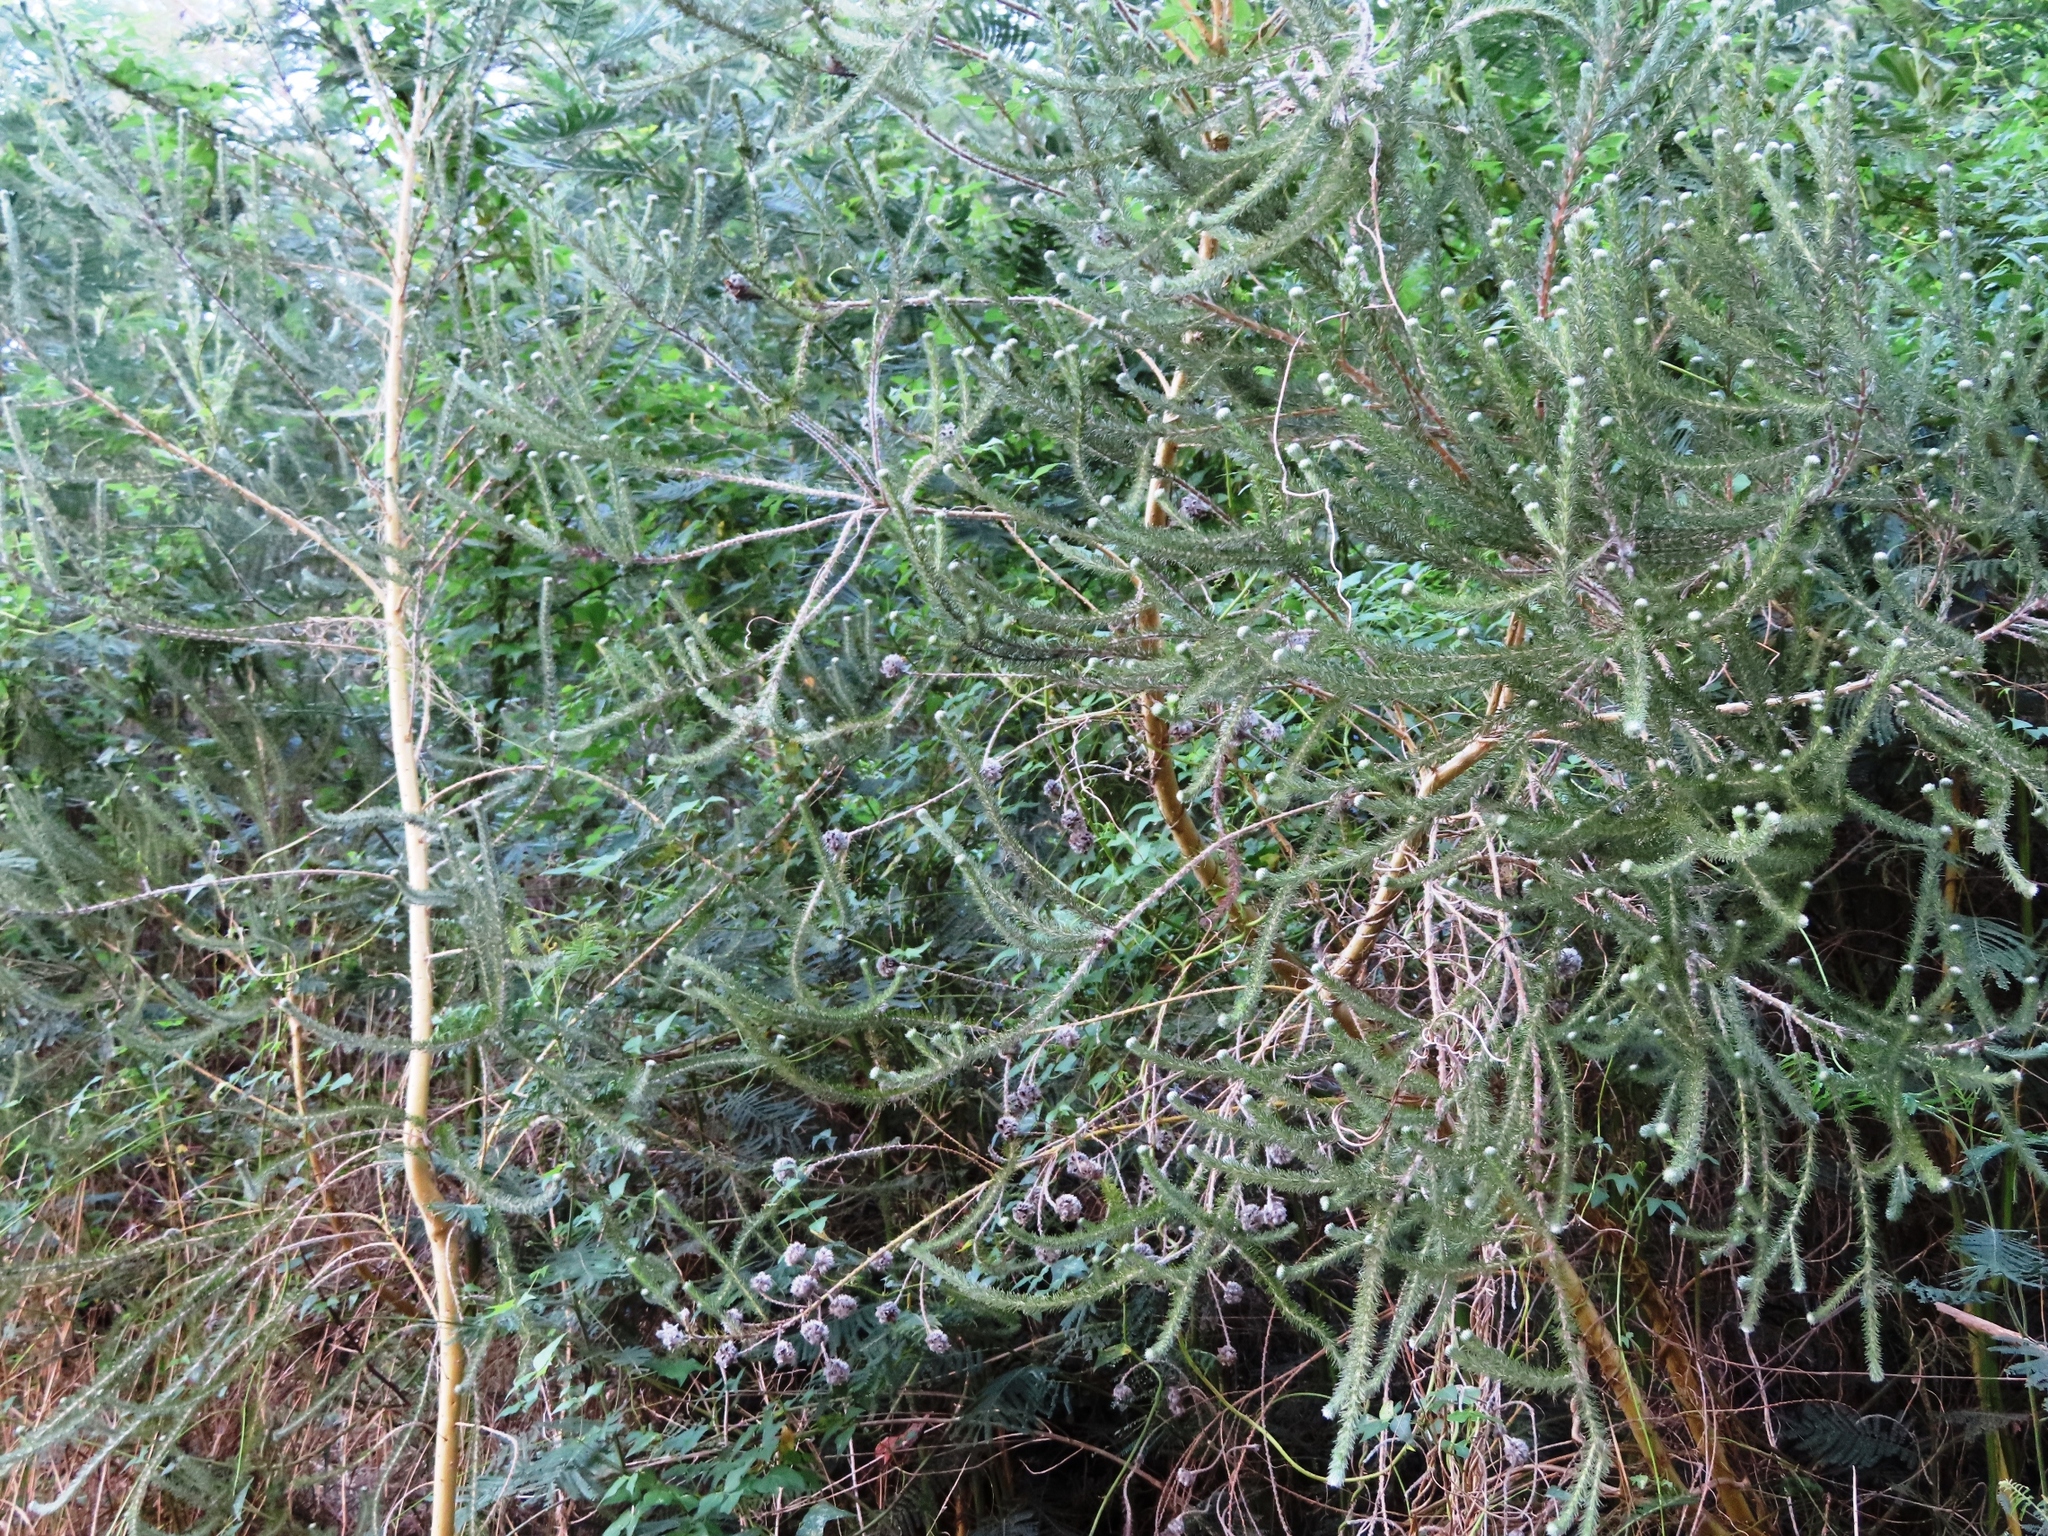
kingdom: Plantae
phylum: Tracheophyta
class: Magnoliopsida
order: Fabales
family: Fabaceae
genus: Aspalathus
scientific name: Aspalathus cephalotes
